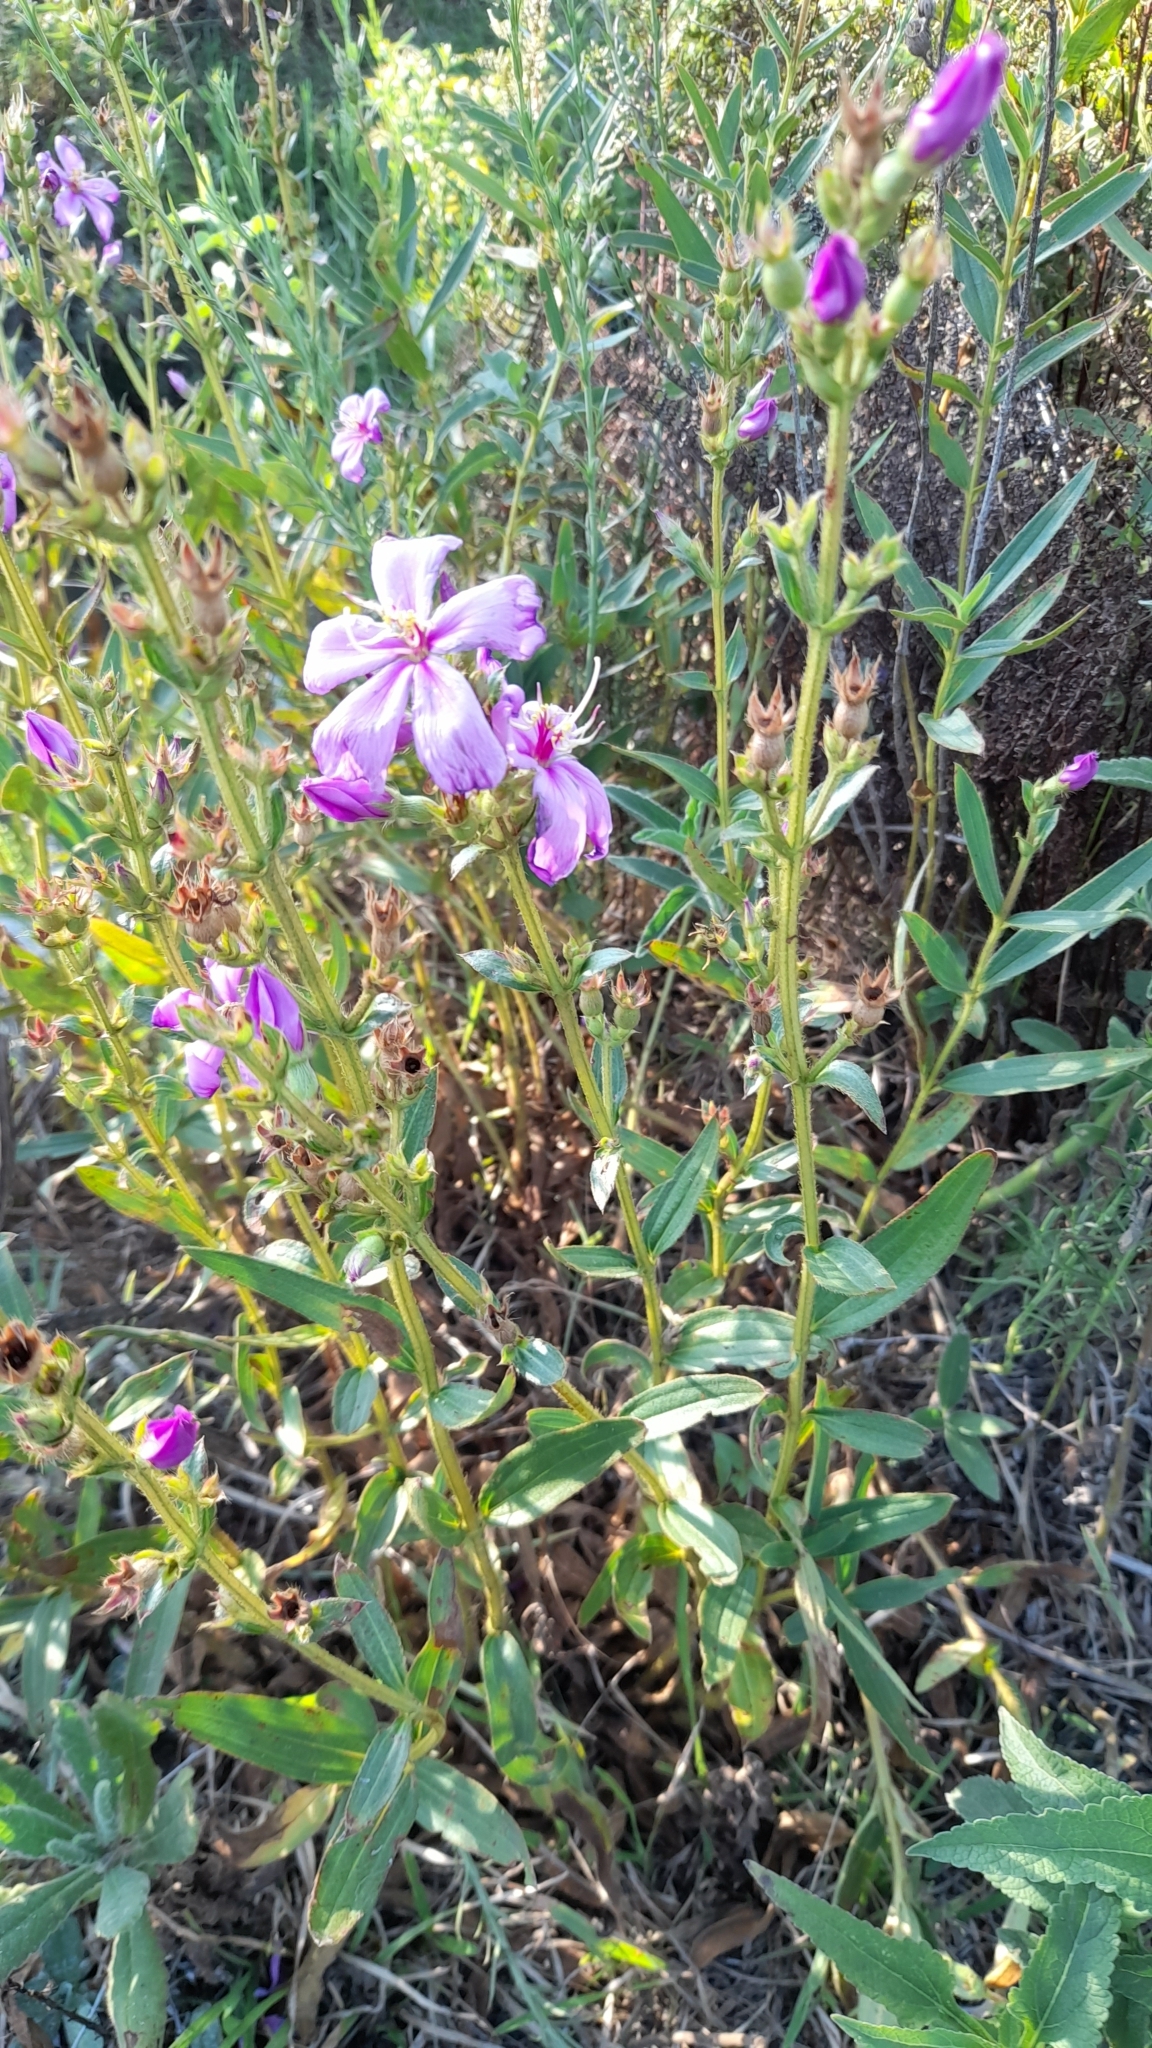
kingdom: Plantae
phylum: Tracheophyta
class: Magnoliopsida
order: Myrtales
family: Melastomataceae
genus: Chaetogastra
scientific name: Chaetogastra nitida
